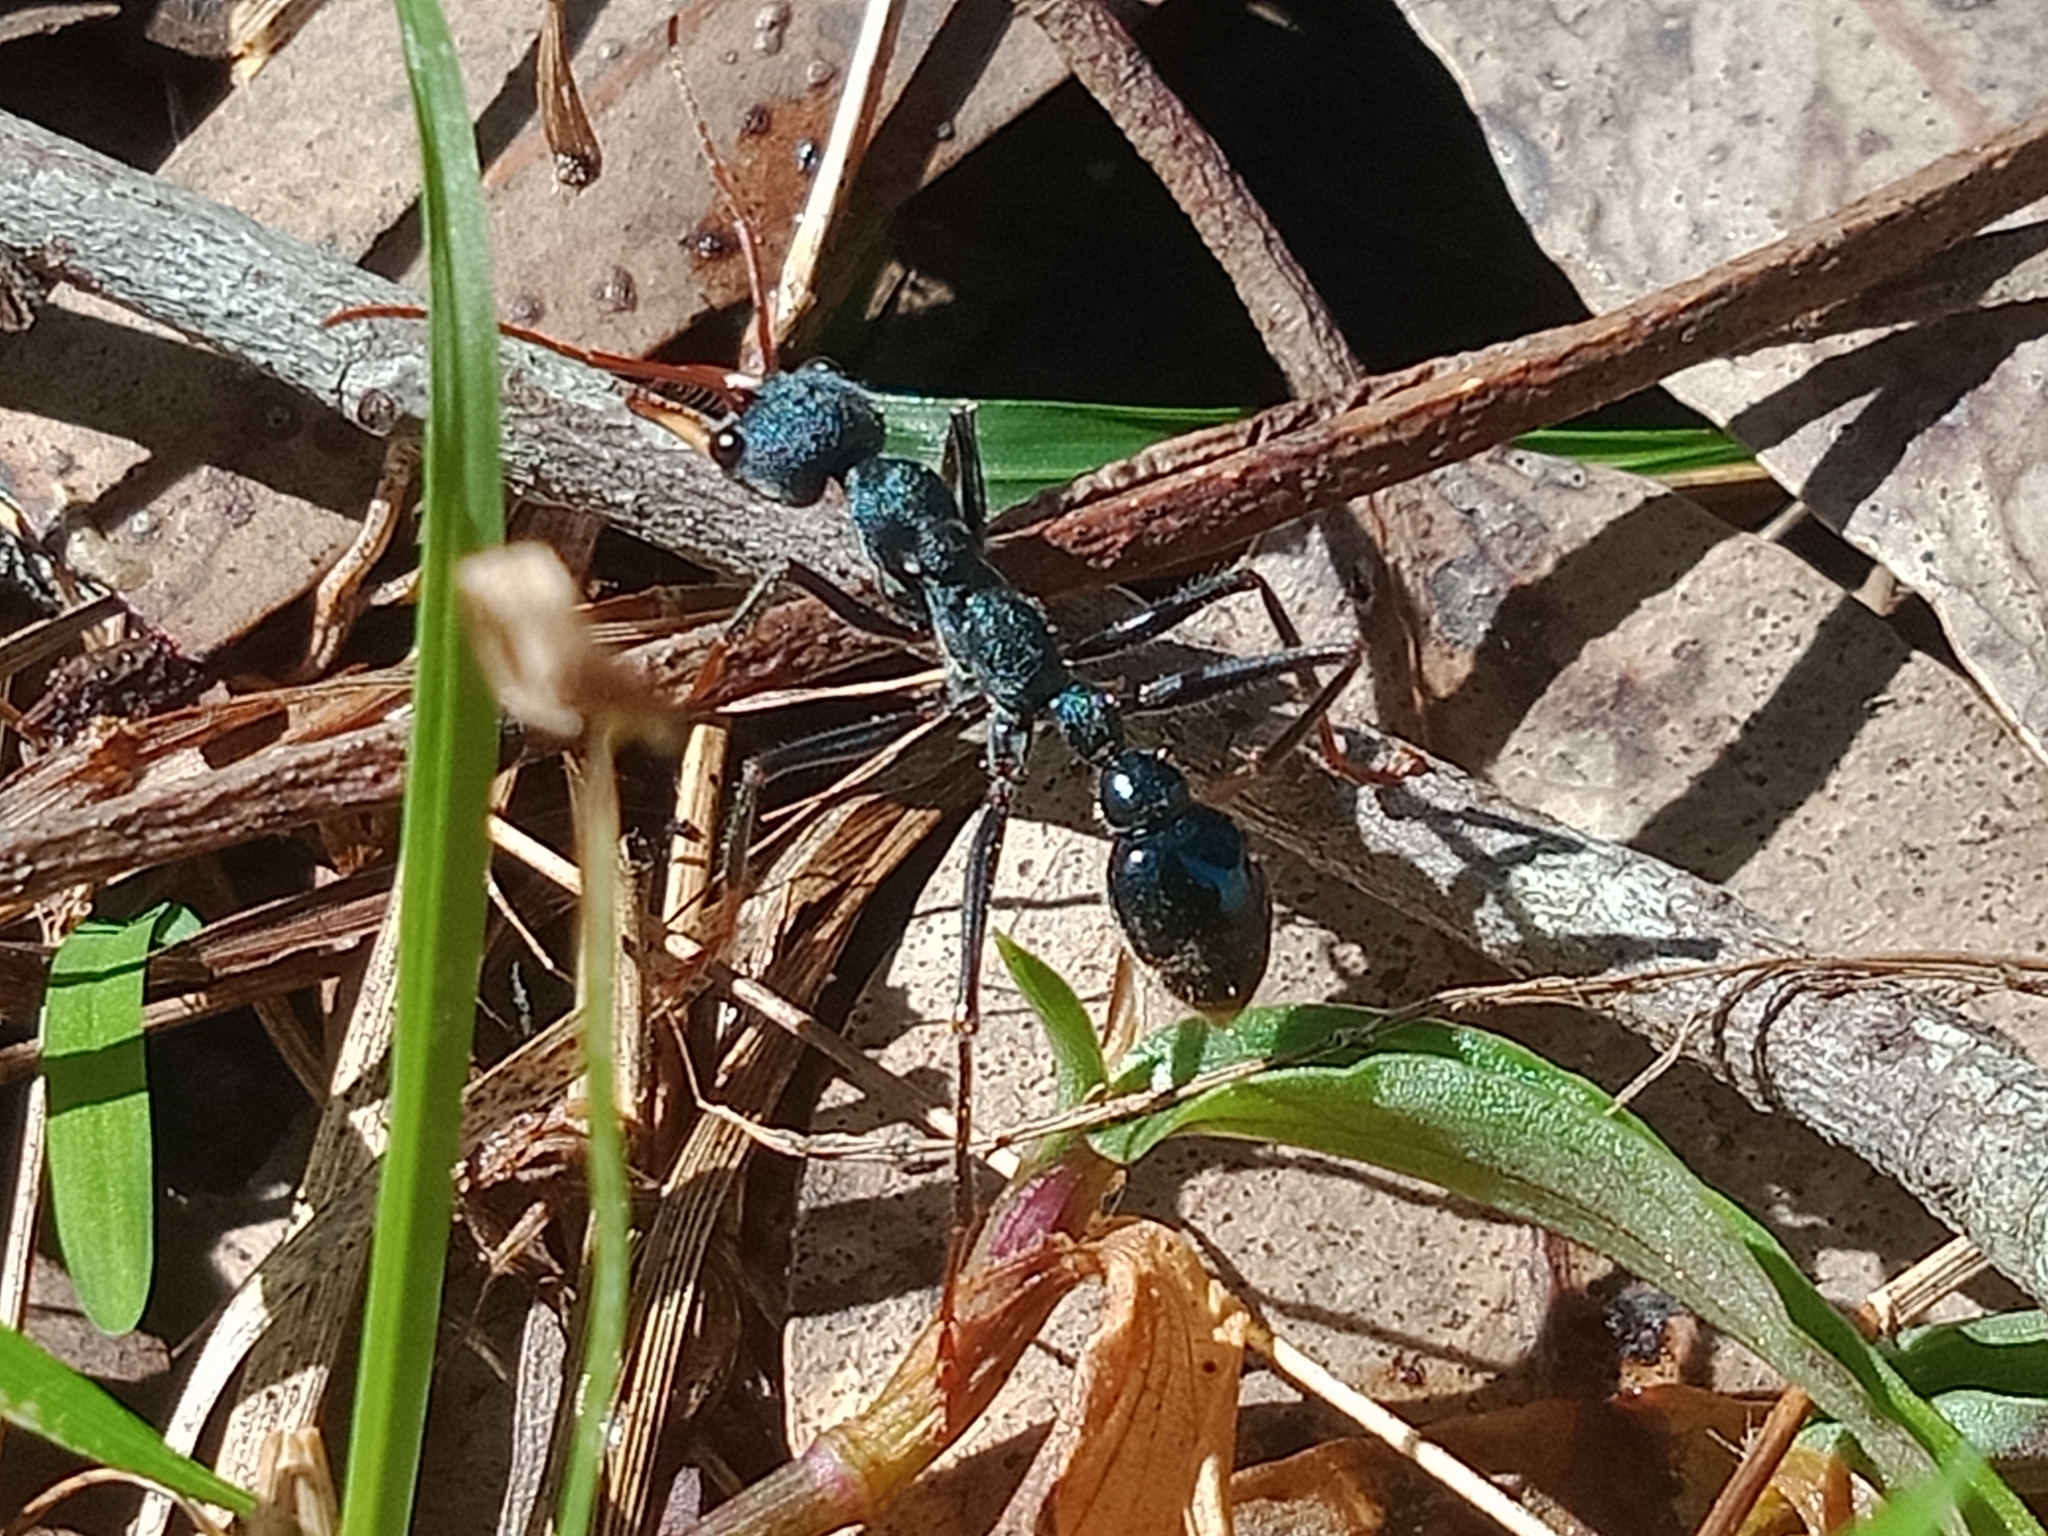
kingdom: Animalia
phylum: Arthropoda
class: Insecta
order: Hymenoptera
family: Formicidae
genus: Myrmecia
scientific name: Myrmecia tarsata
